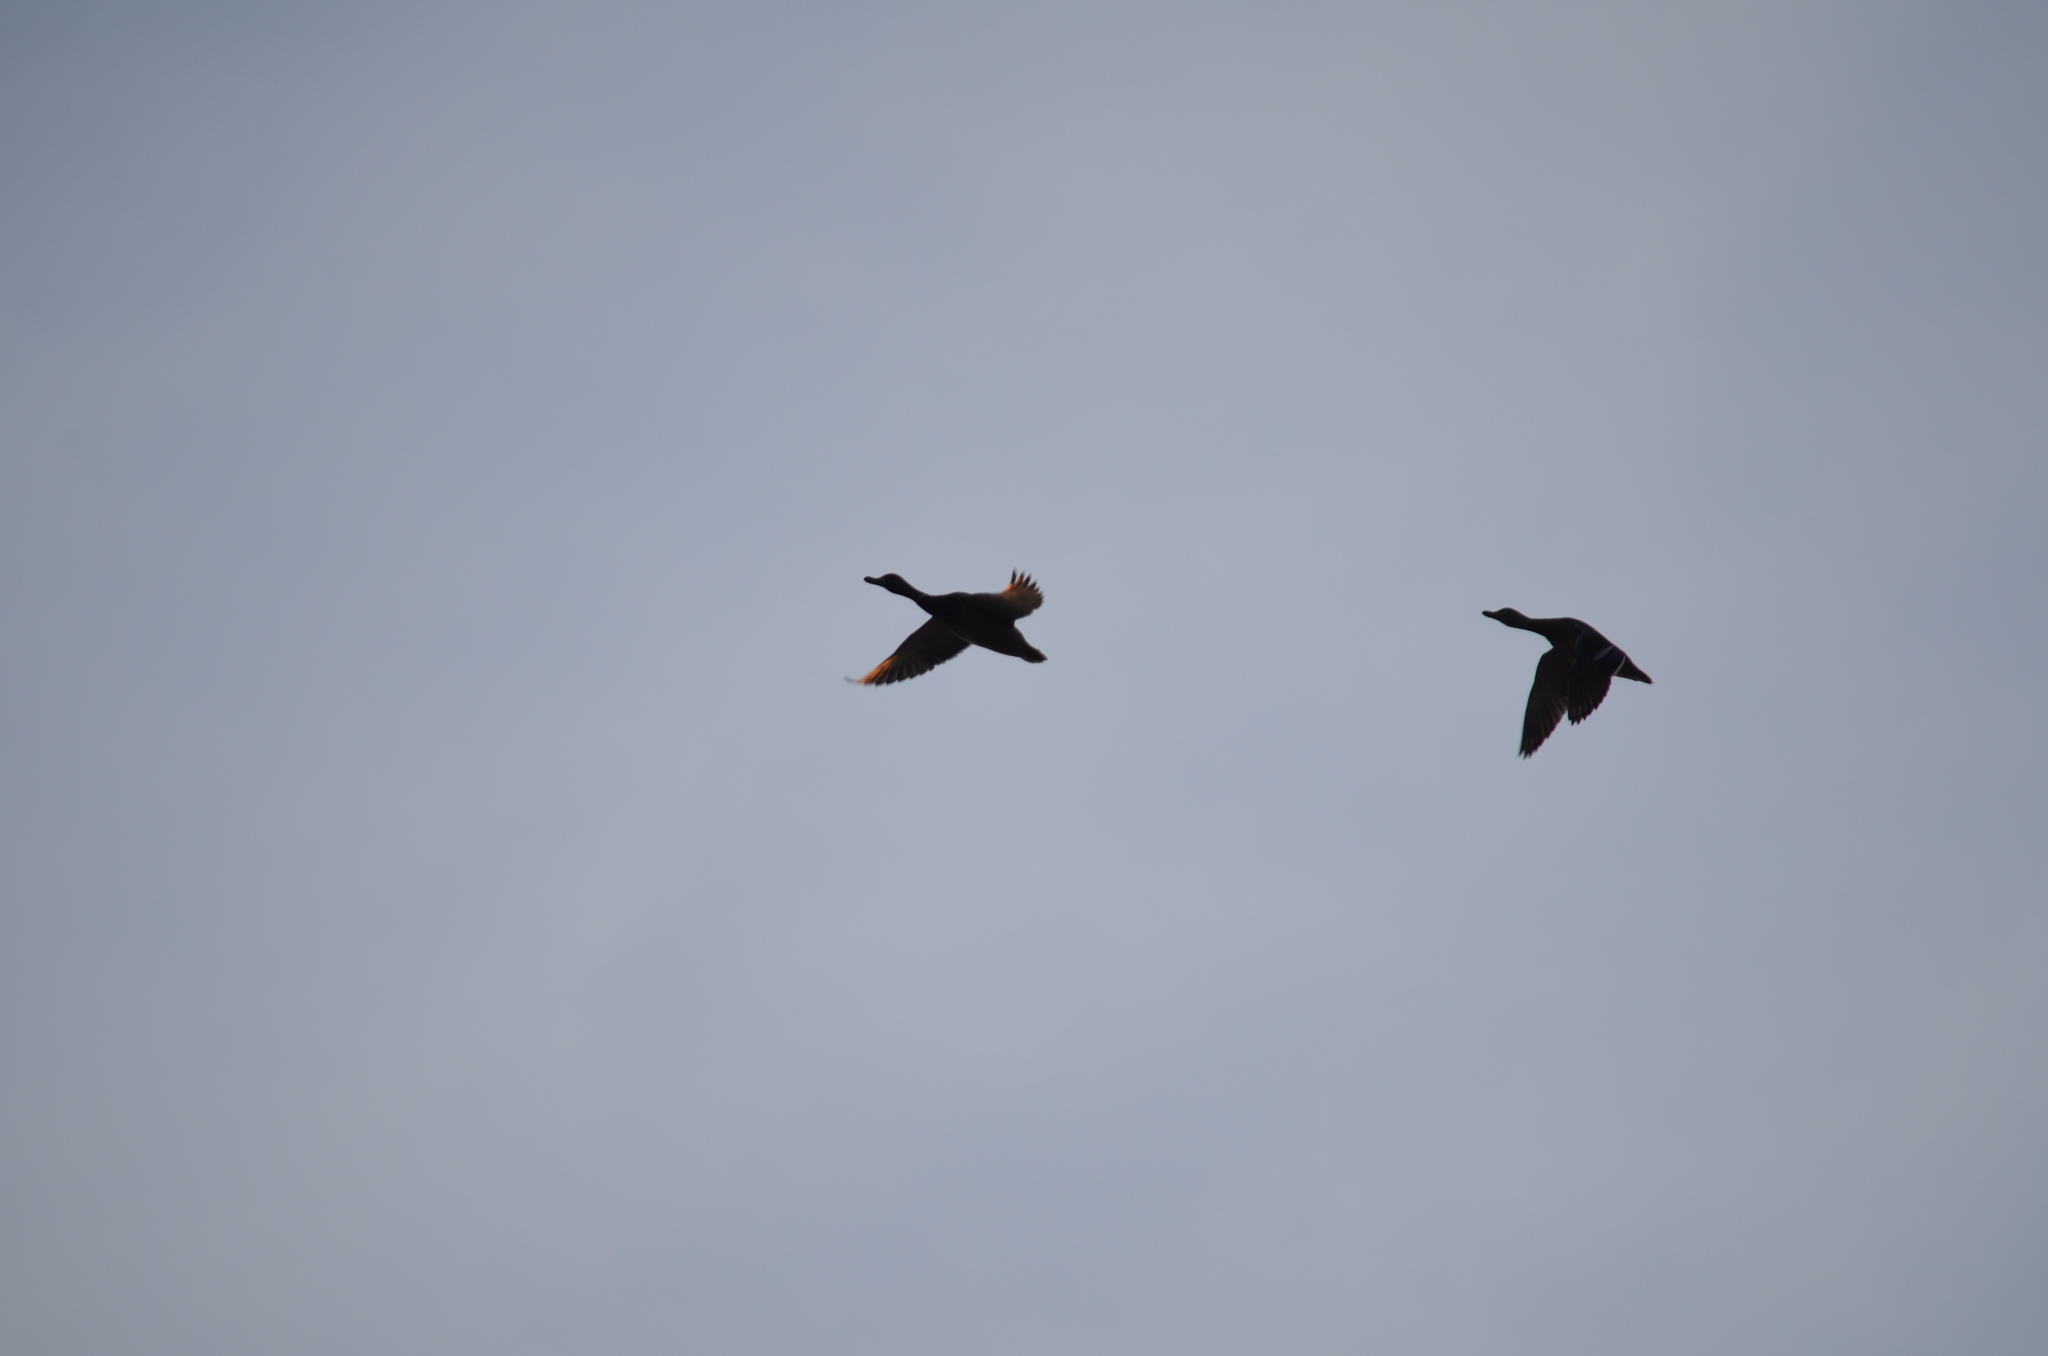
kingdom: Animalia
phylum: Chordata
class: Aves
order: Anseriformes
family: Anatidae
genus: Anas
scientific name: Anas platyrhynchos
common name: Mallard
